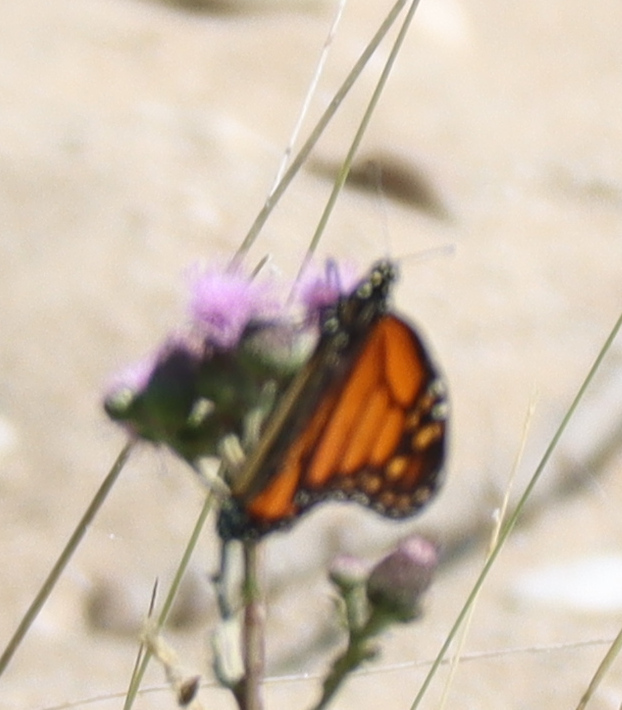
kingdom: Animalia
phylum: Arthropoda
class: Insecta
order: Lepidoptera
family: Nymphalidae
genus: Danaus
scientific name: Danaus plexippus
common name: Monarch
